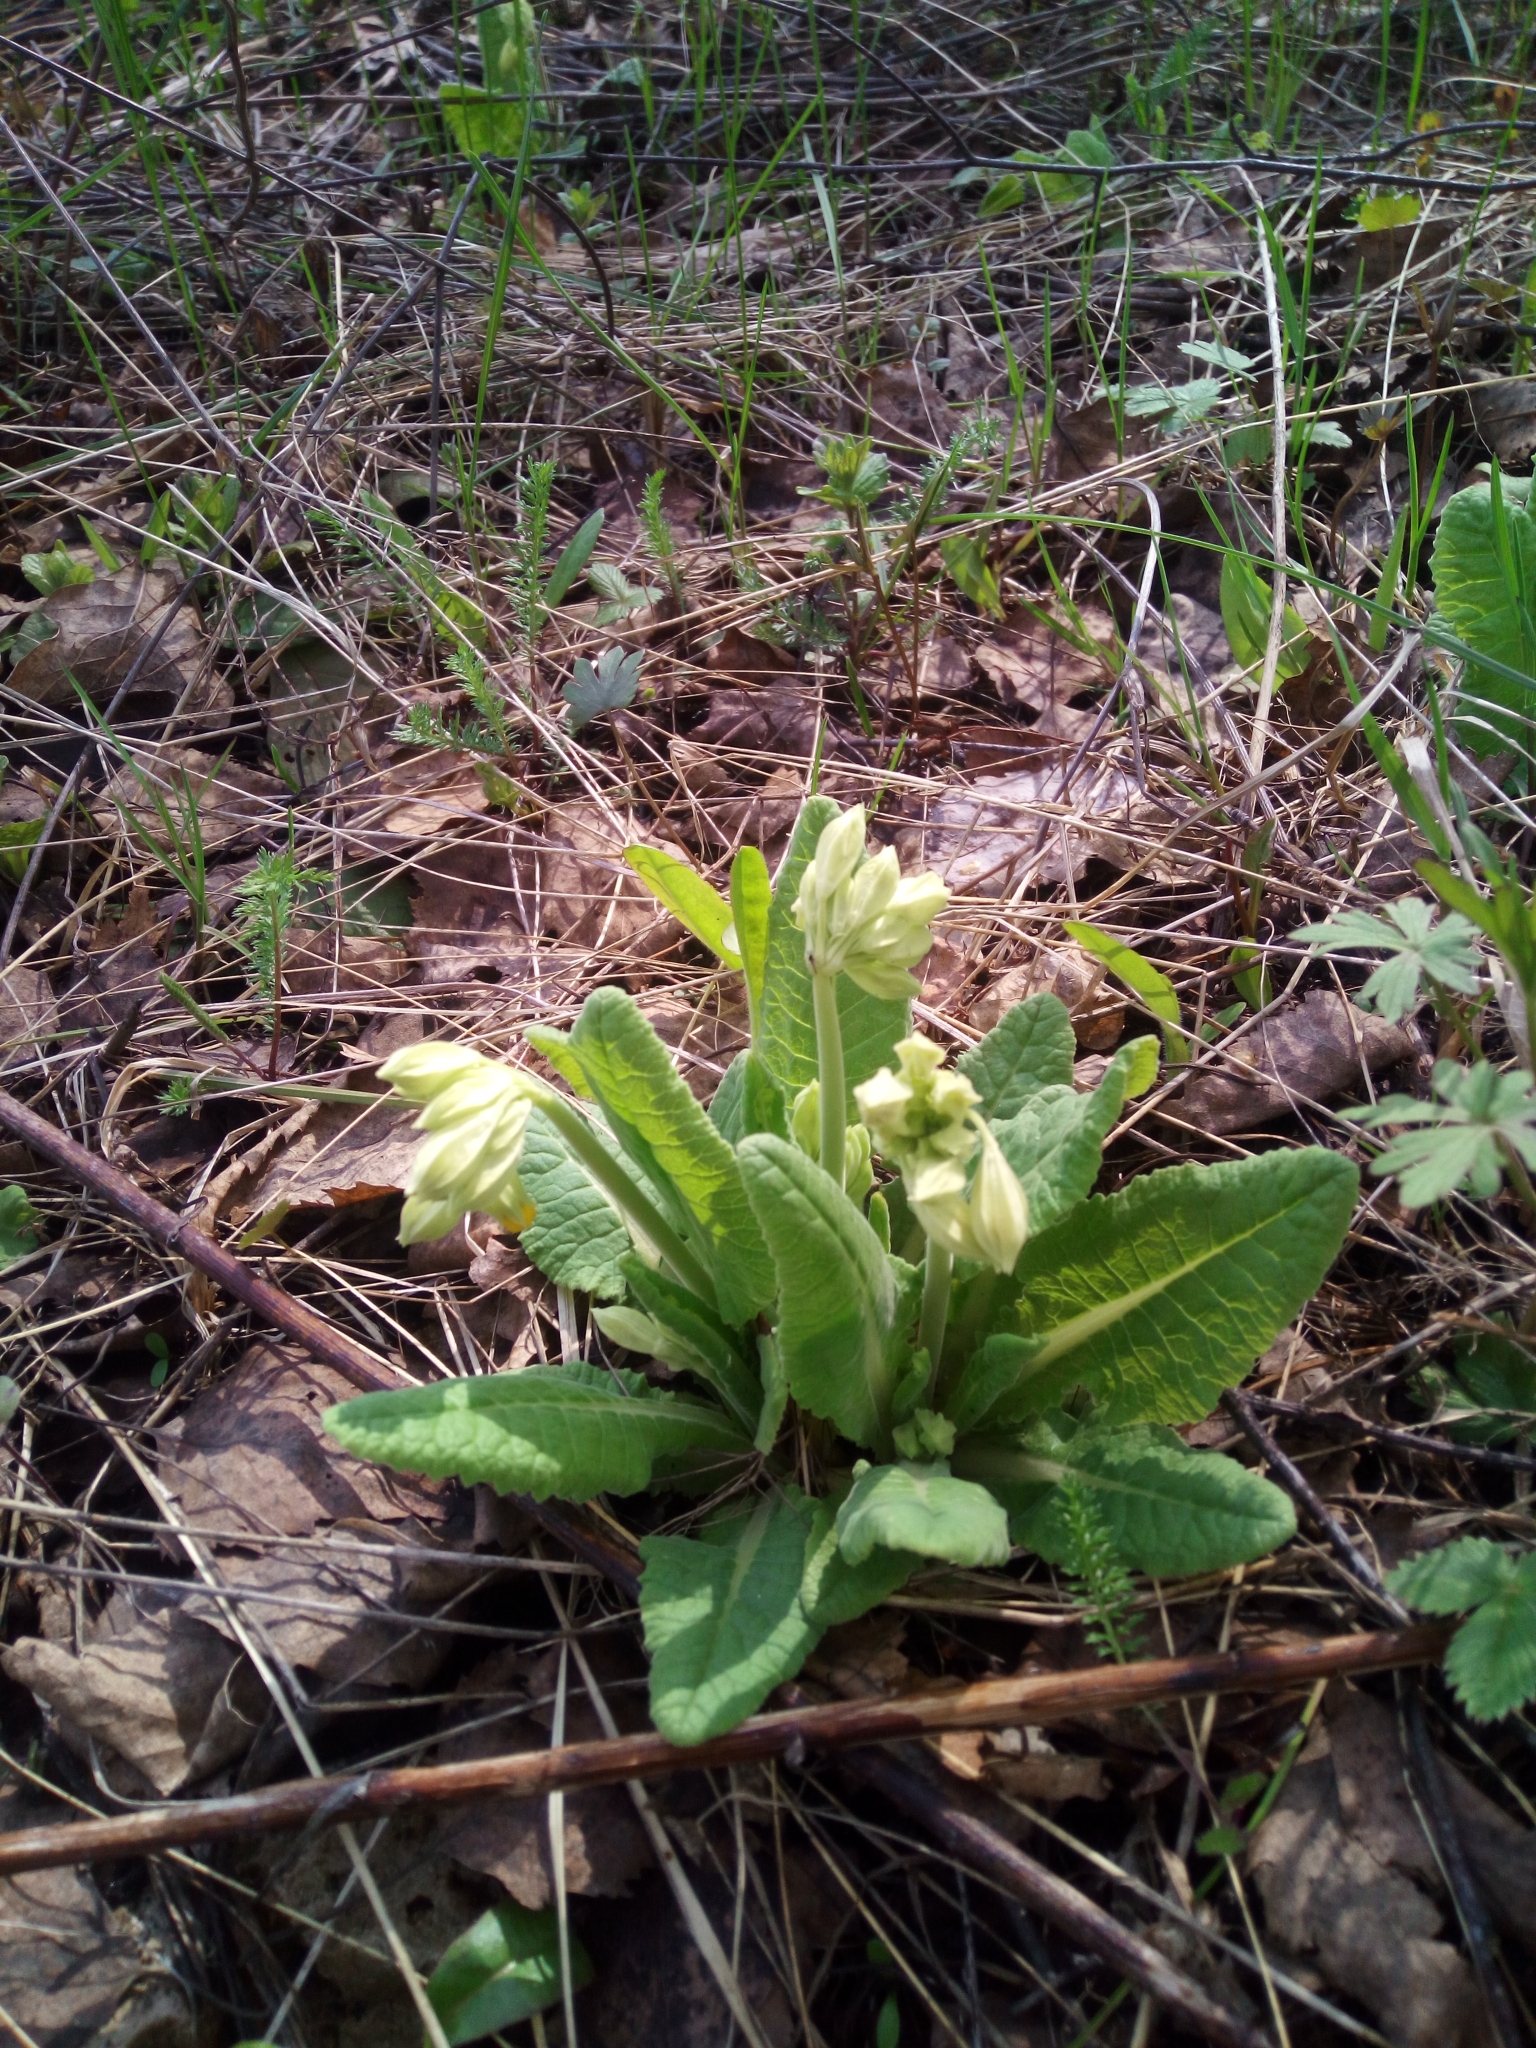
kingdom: Plantae
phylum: Tracheophyta
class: Magnoliopsida
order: Ericales
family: Primulaceae
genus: Primula
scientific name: Primula veris
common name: Cowslip
